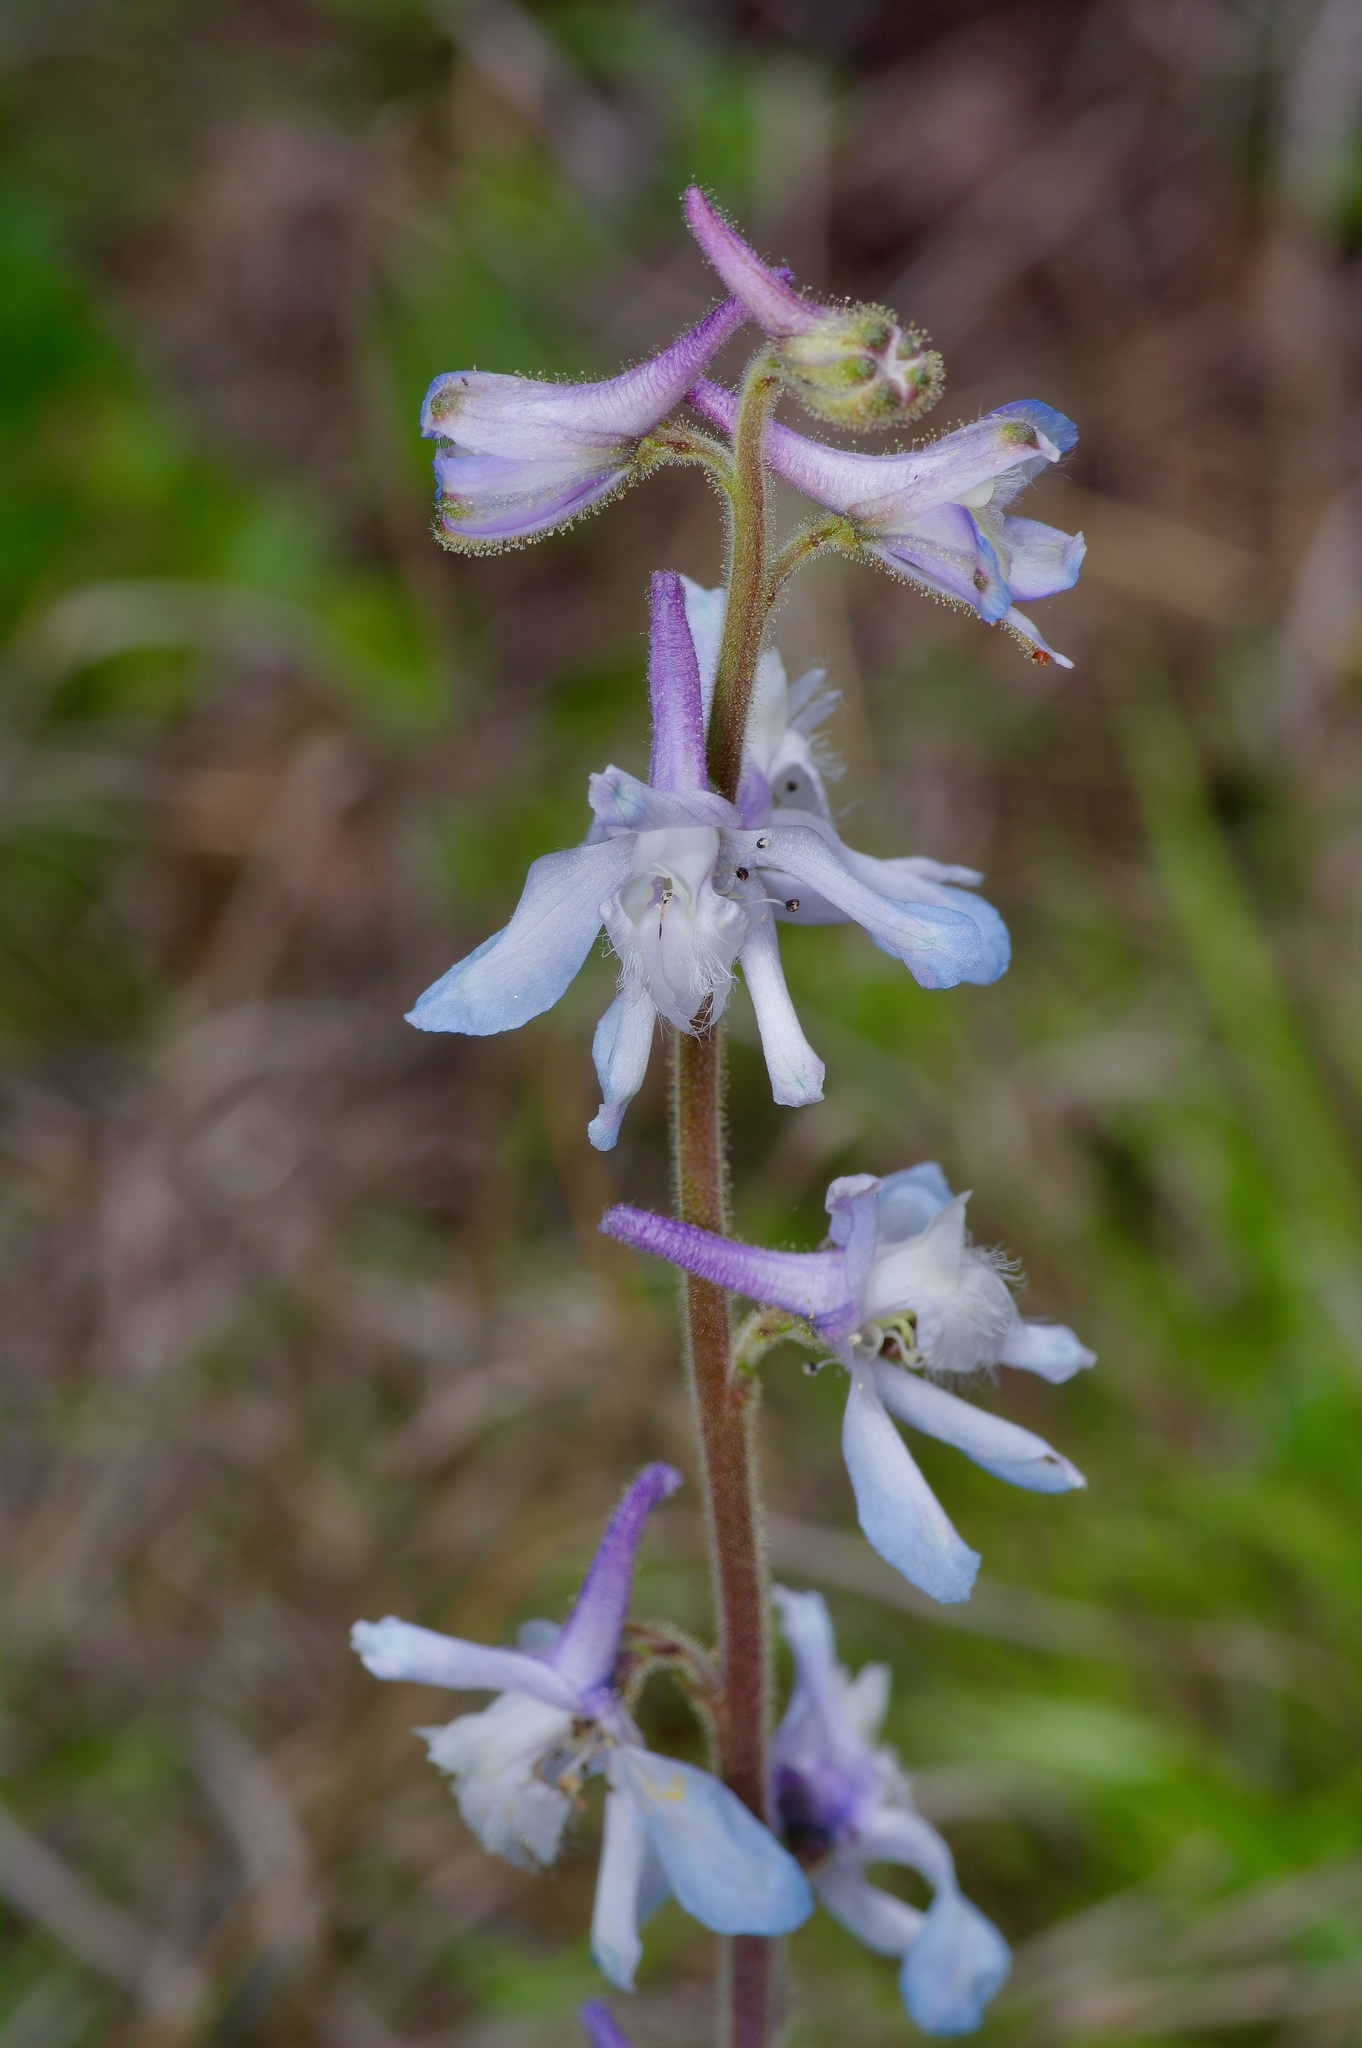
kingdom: Plantae
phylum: Tracheophyta
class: Magnoliopsida
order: Ranunculales
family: Ranunculaceae
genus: Delphinium
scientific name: Delphinium carolinianum
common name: Carolina larkspur
